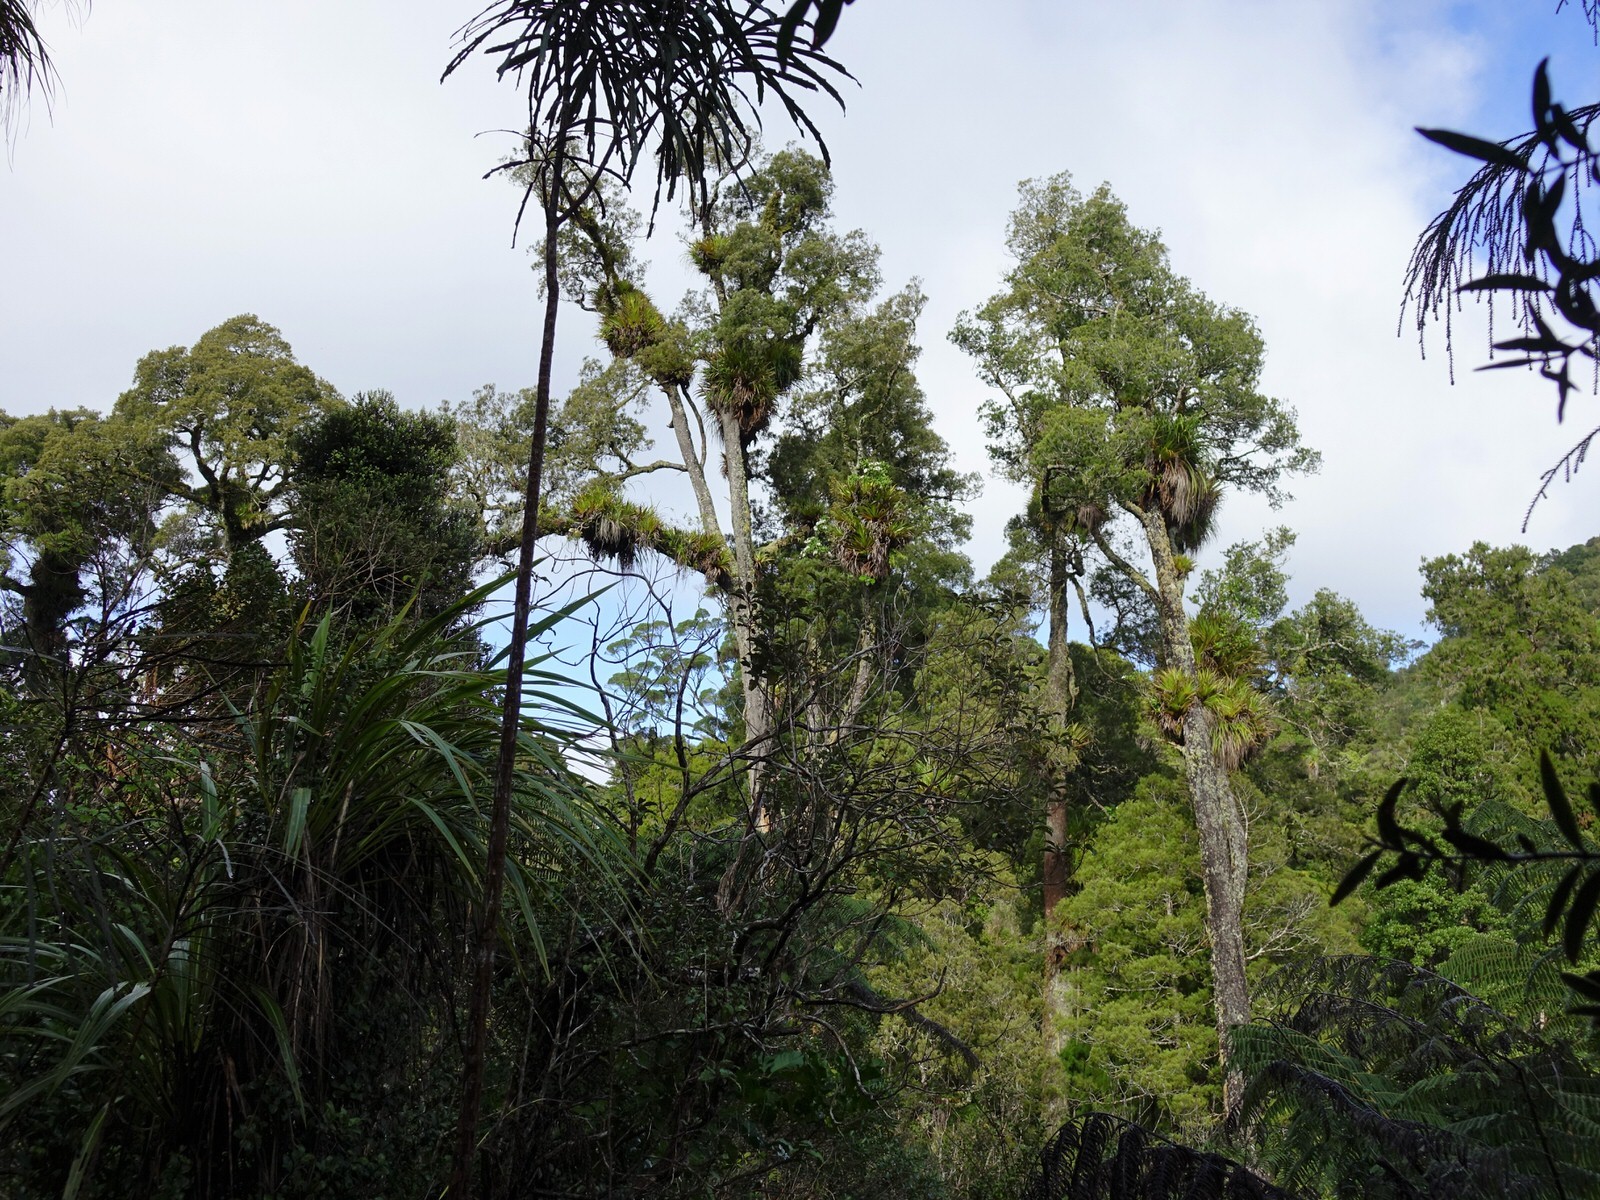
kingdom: Plantae
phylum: Tracheophyta
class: Magnoliopsida
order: Asterales
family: Asteraceae
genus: Brachyglottis
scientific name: Brachyglottis kirkii
